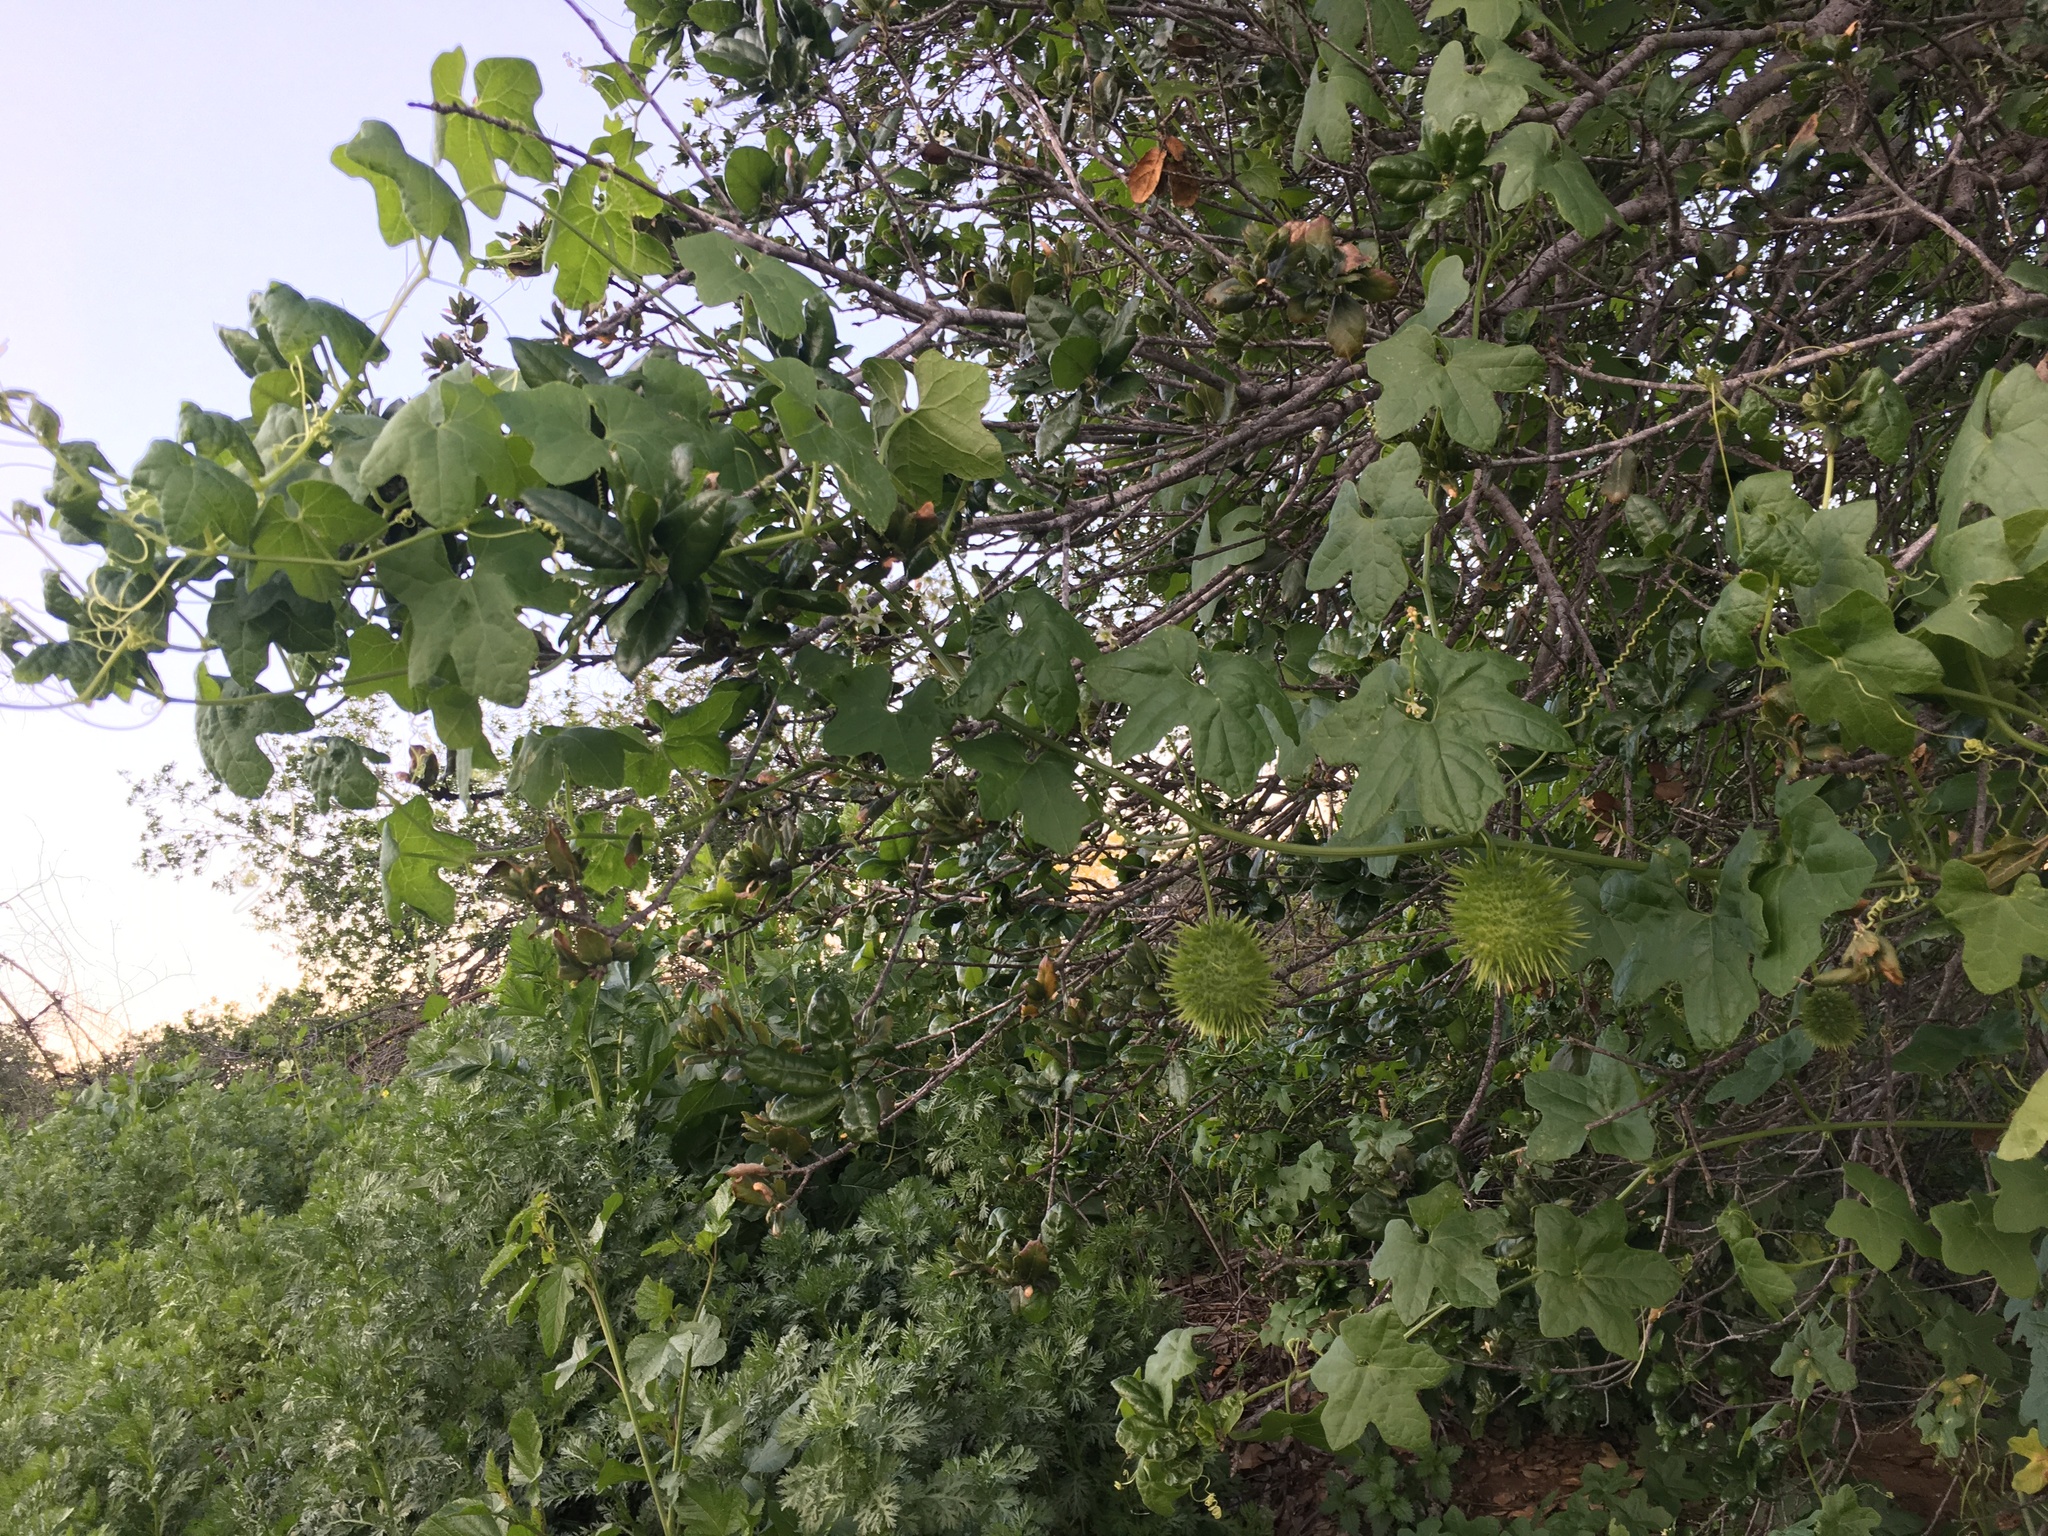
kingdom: Plantae
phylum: Tracheophyta
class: Magnoliopsida
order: Cucurbitales
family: Cucurbitaceae
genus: Marah
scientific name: Marah macrocarpa
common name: Cucamonga manroot
